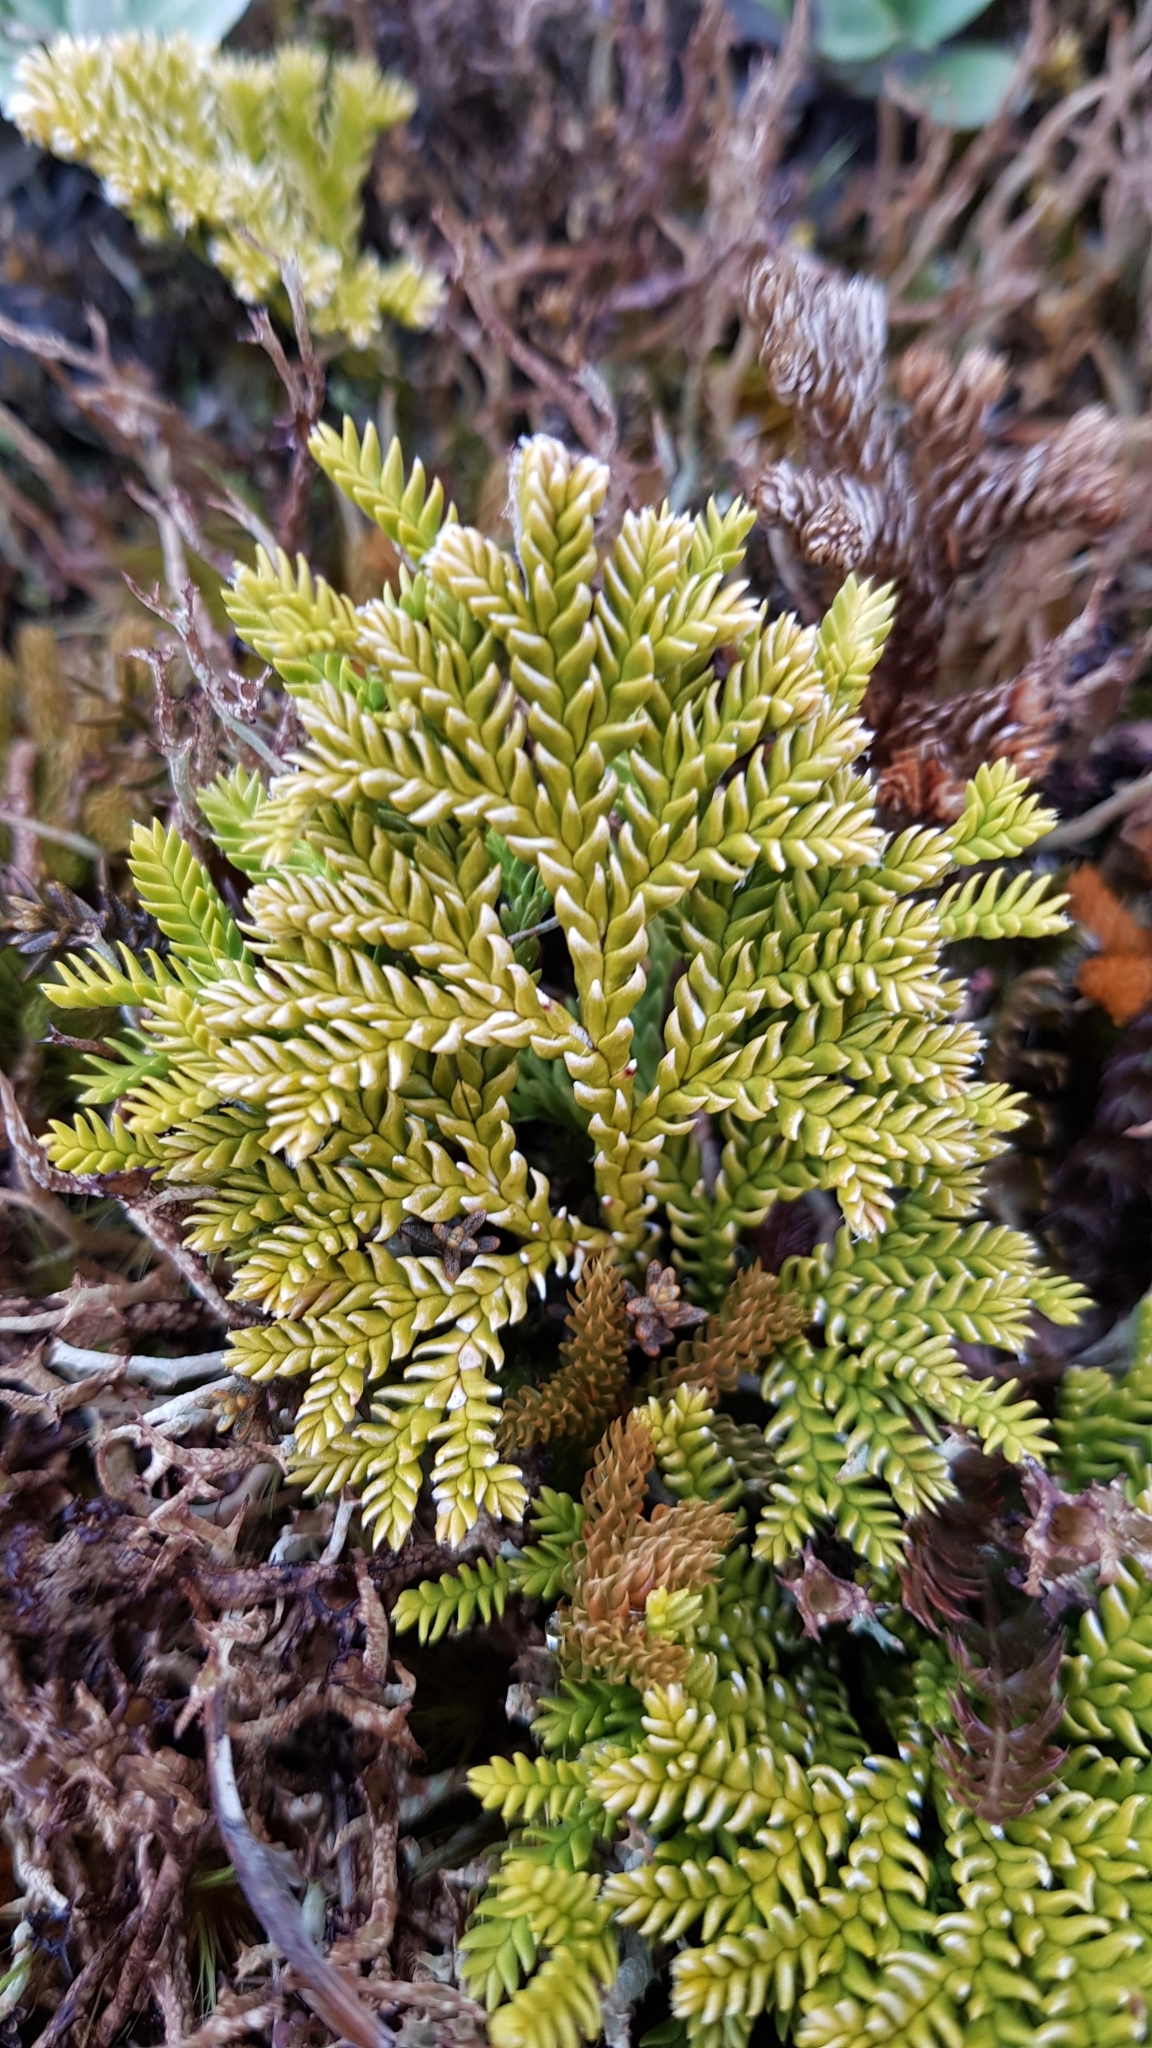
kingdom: Plantae
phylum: Tracheophyta
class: Lycopodiopsida
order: Lycopodiales
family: Lycopodiaceae
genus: Diphasium
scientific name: Diphasium scariosum
